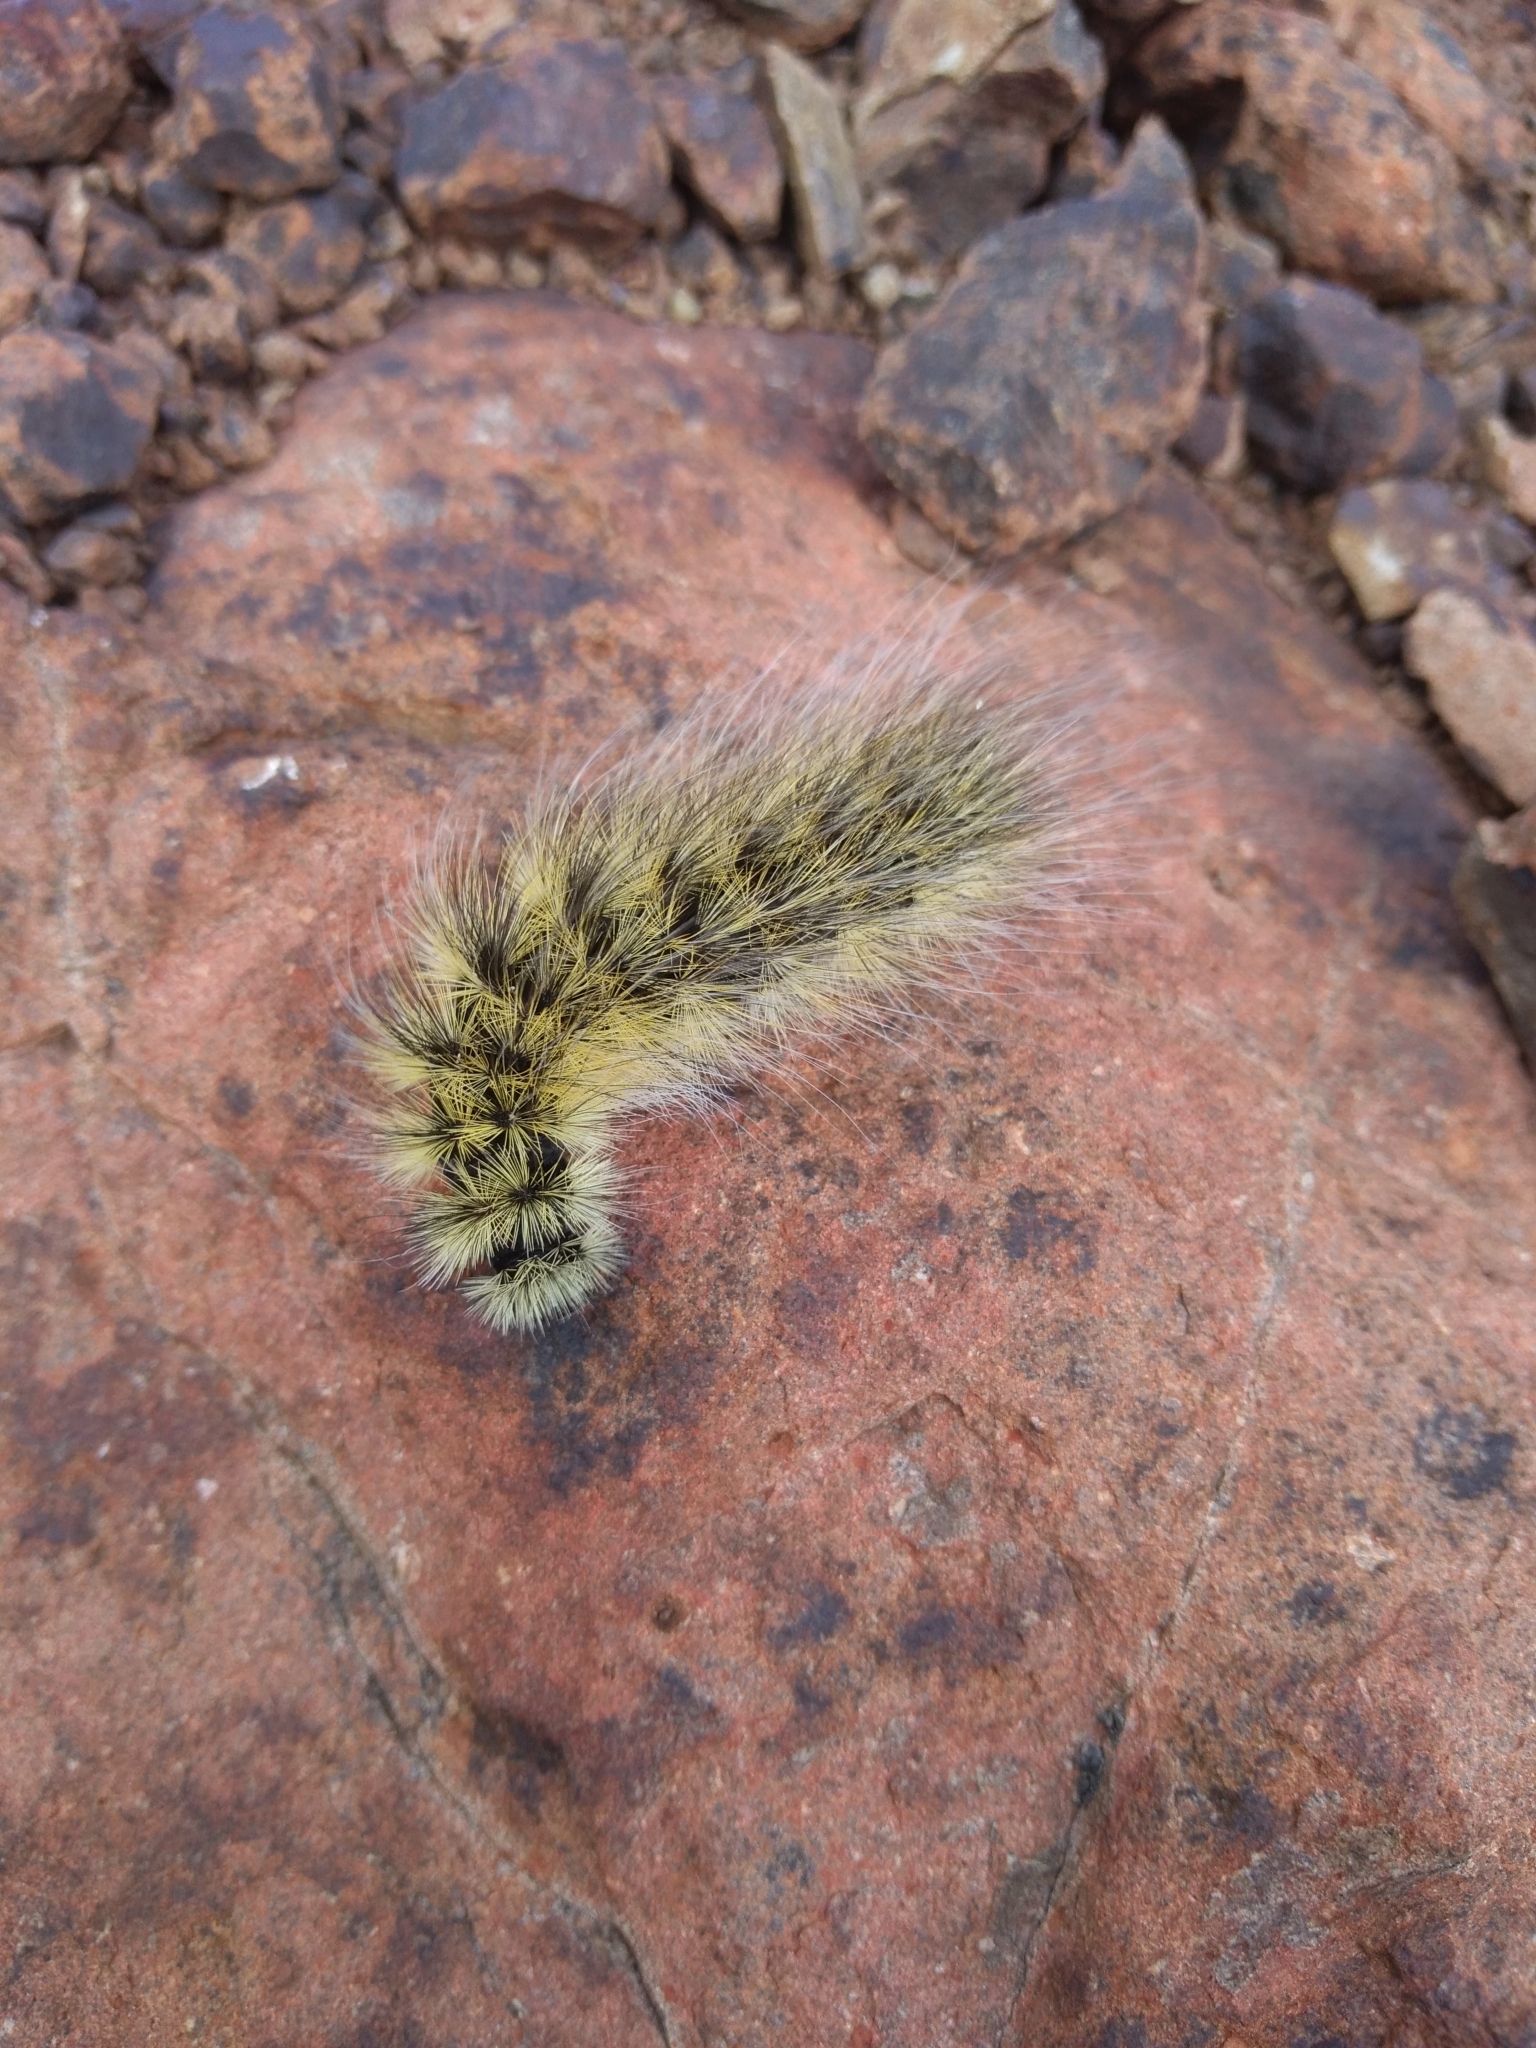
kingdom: Animalia
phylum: Arthropoda
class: Insecta
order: Lepidoptera
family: Erebidae
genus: Arctia
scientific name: Arctia flavia
